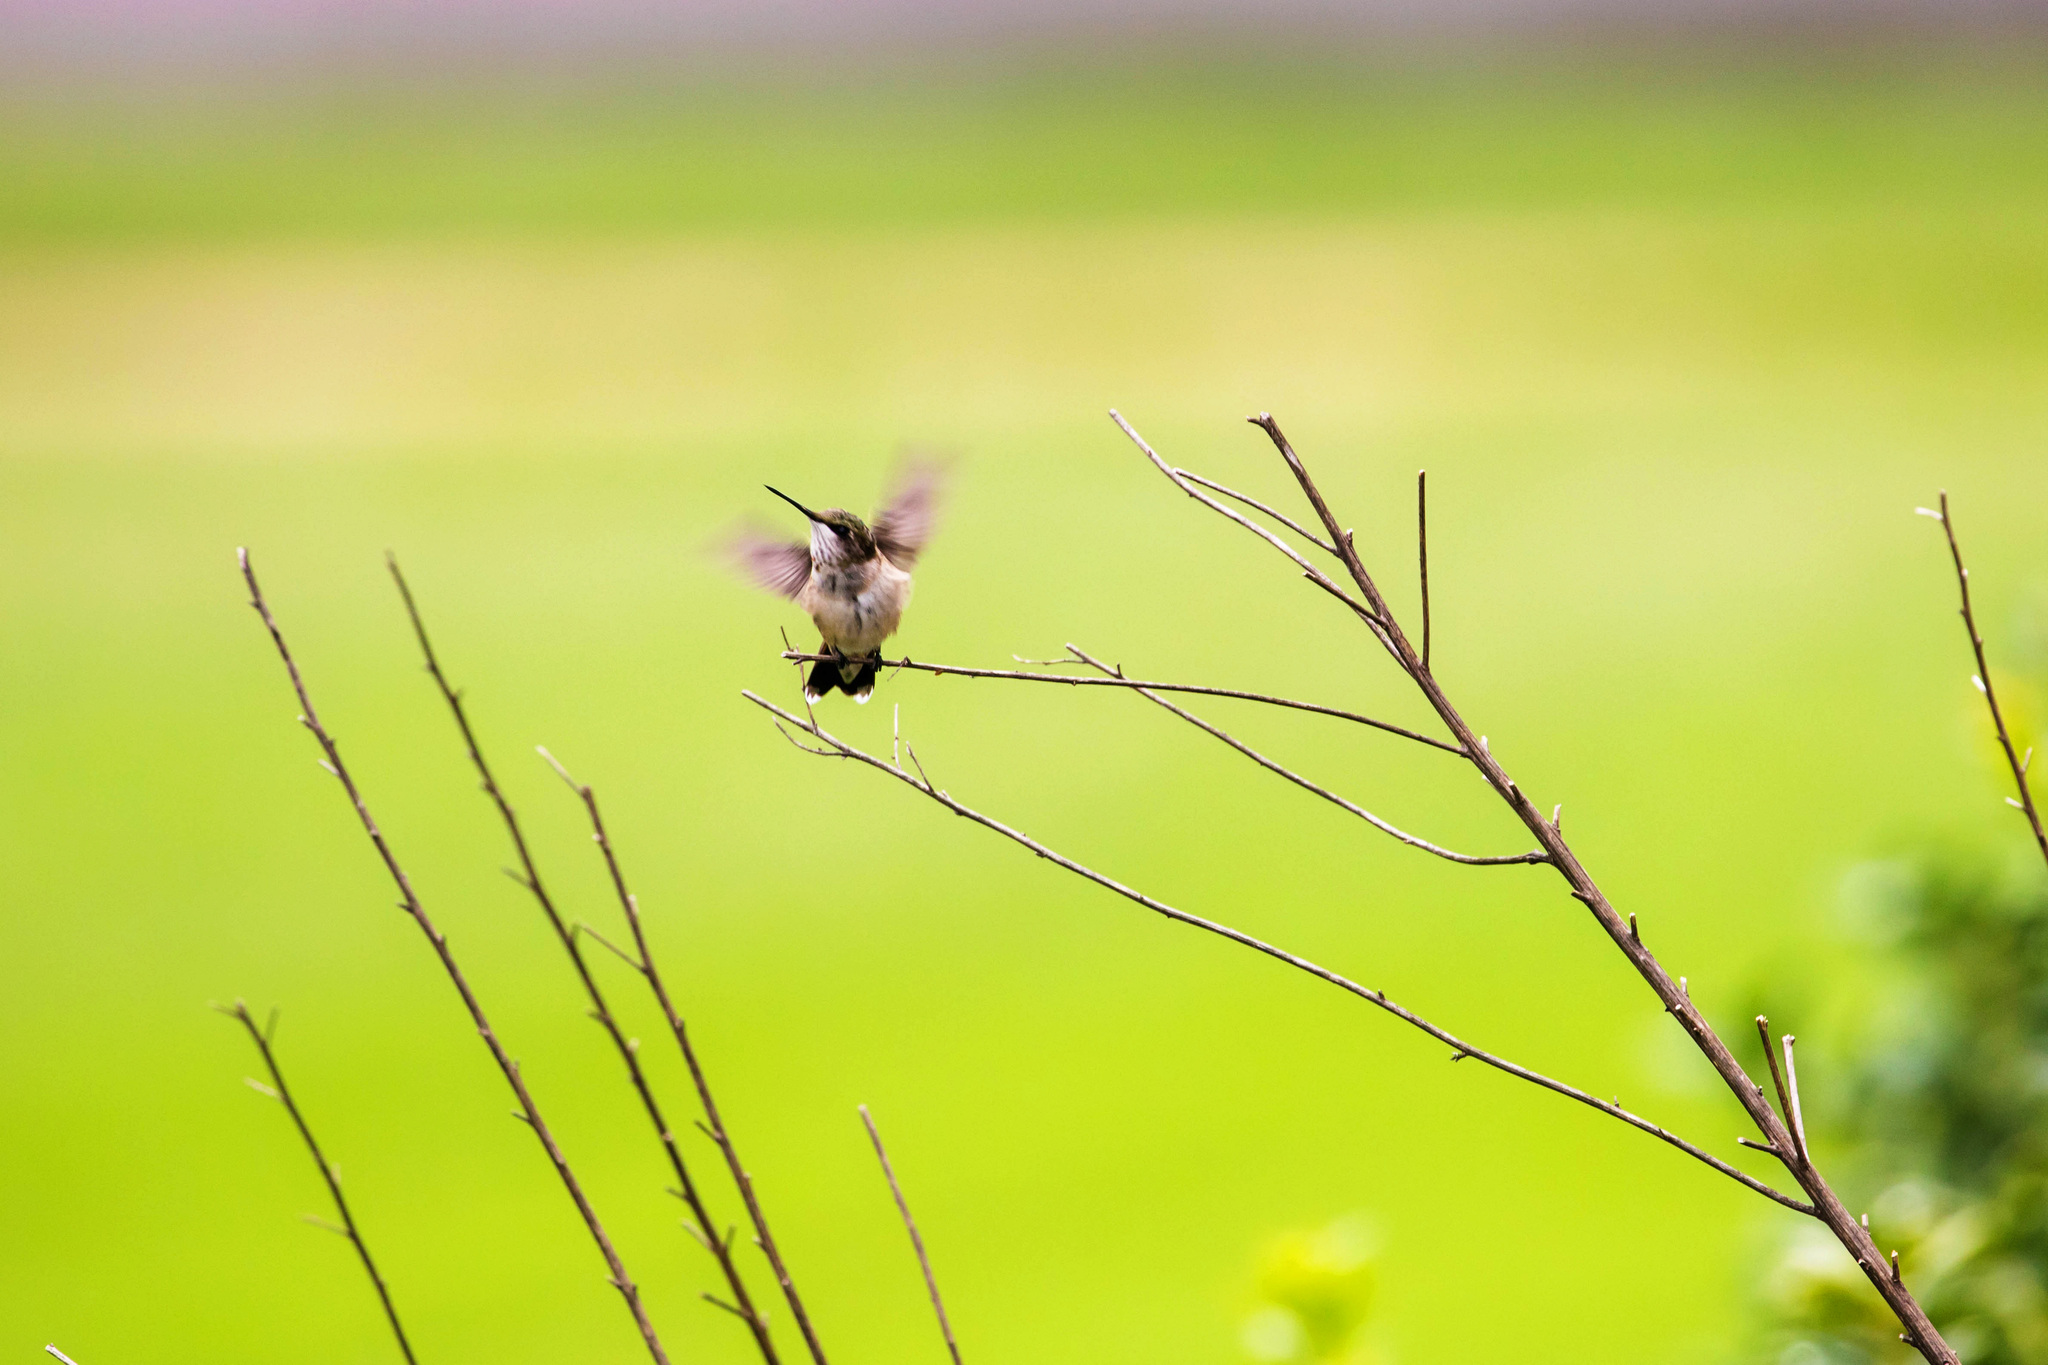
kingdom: Animalia
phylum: Chordata
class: Aves
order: Apodiformes
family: Trochilidae
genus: Archilochus
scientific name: Archilochus colubris
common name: Ruby-throated hummingbird
